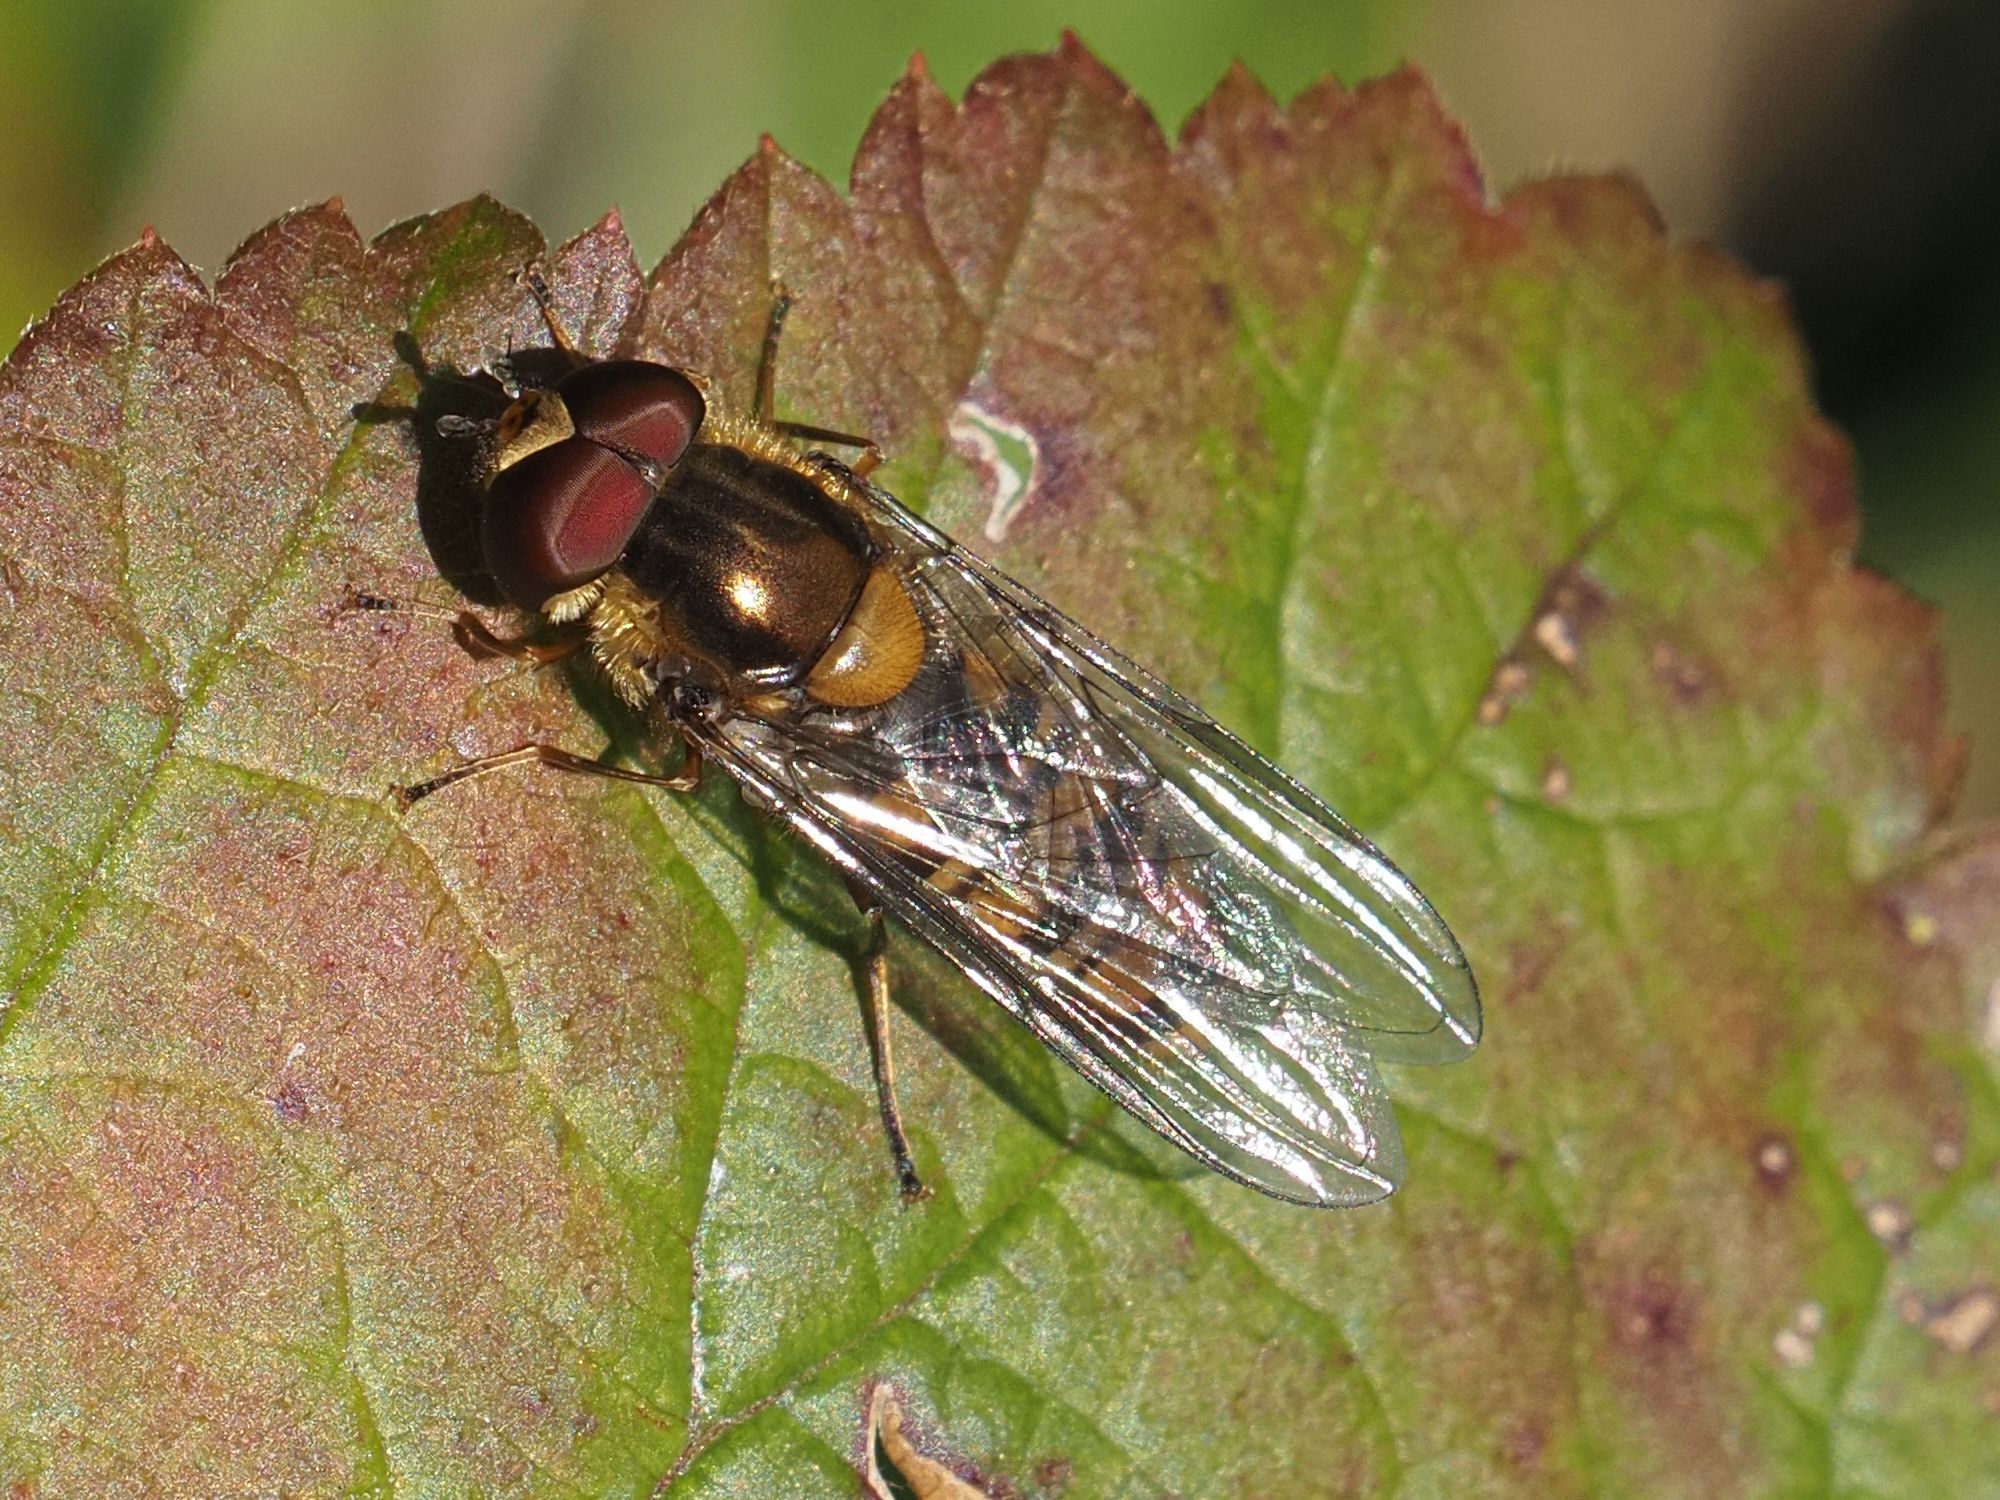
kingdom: Animalia
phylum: Arthropoda
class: Insecta
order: Diptera
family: Syrphidae
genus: Episyrphus
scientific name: Episyrphus balteatus
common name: Marmalade hoverfly
